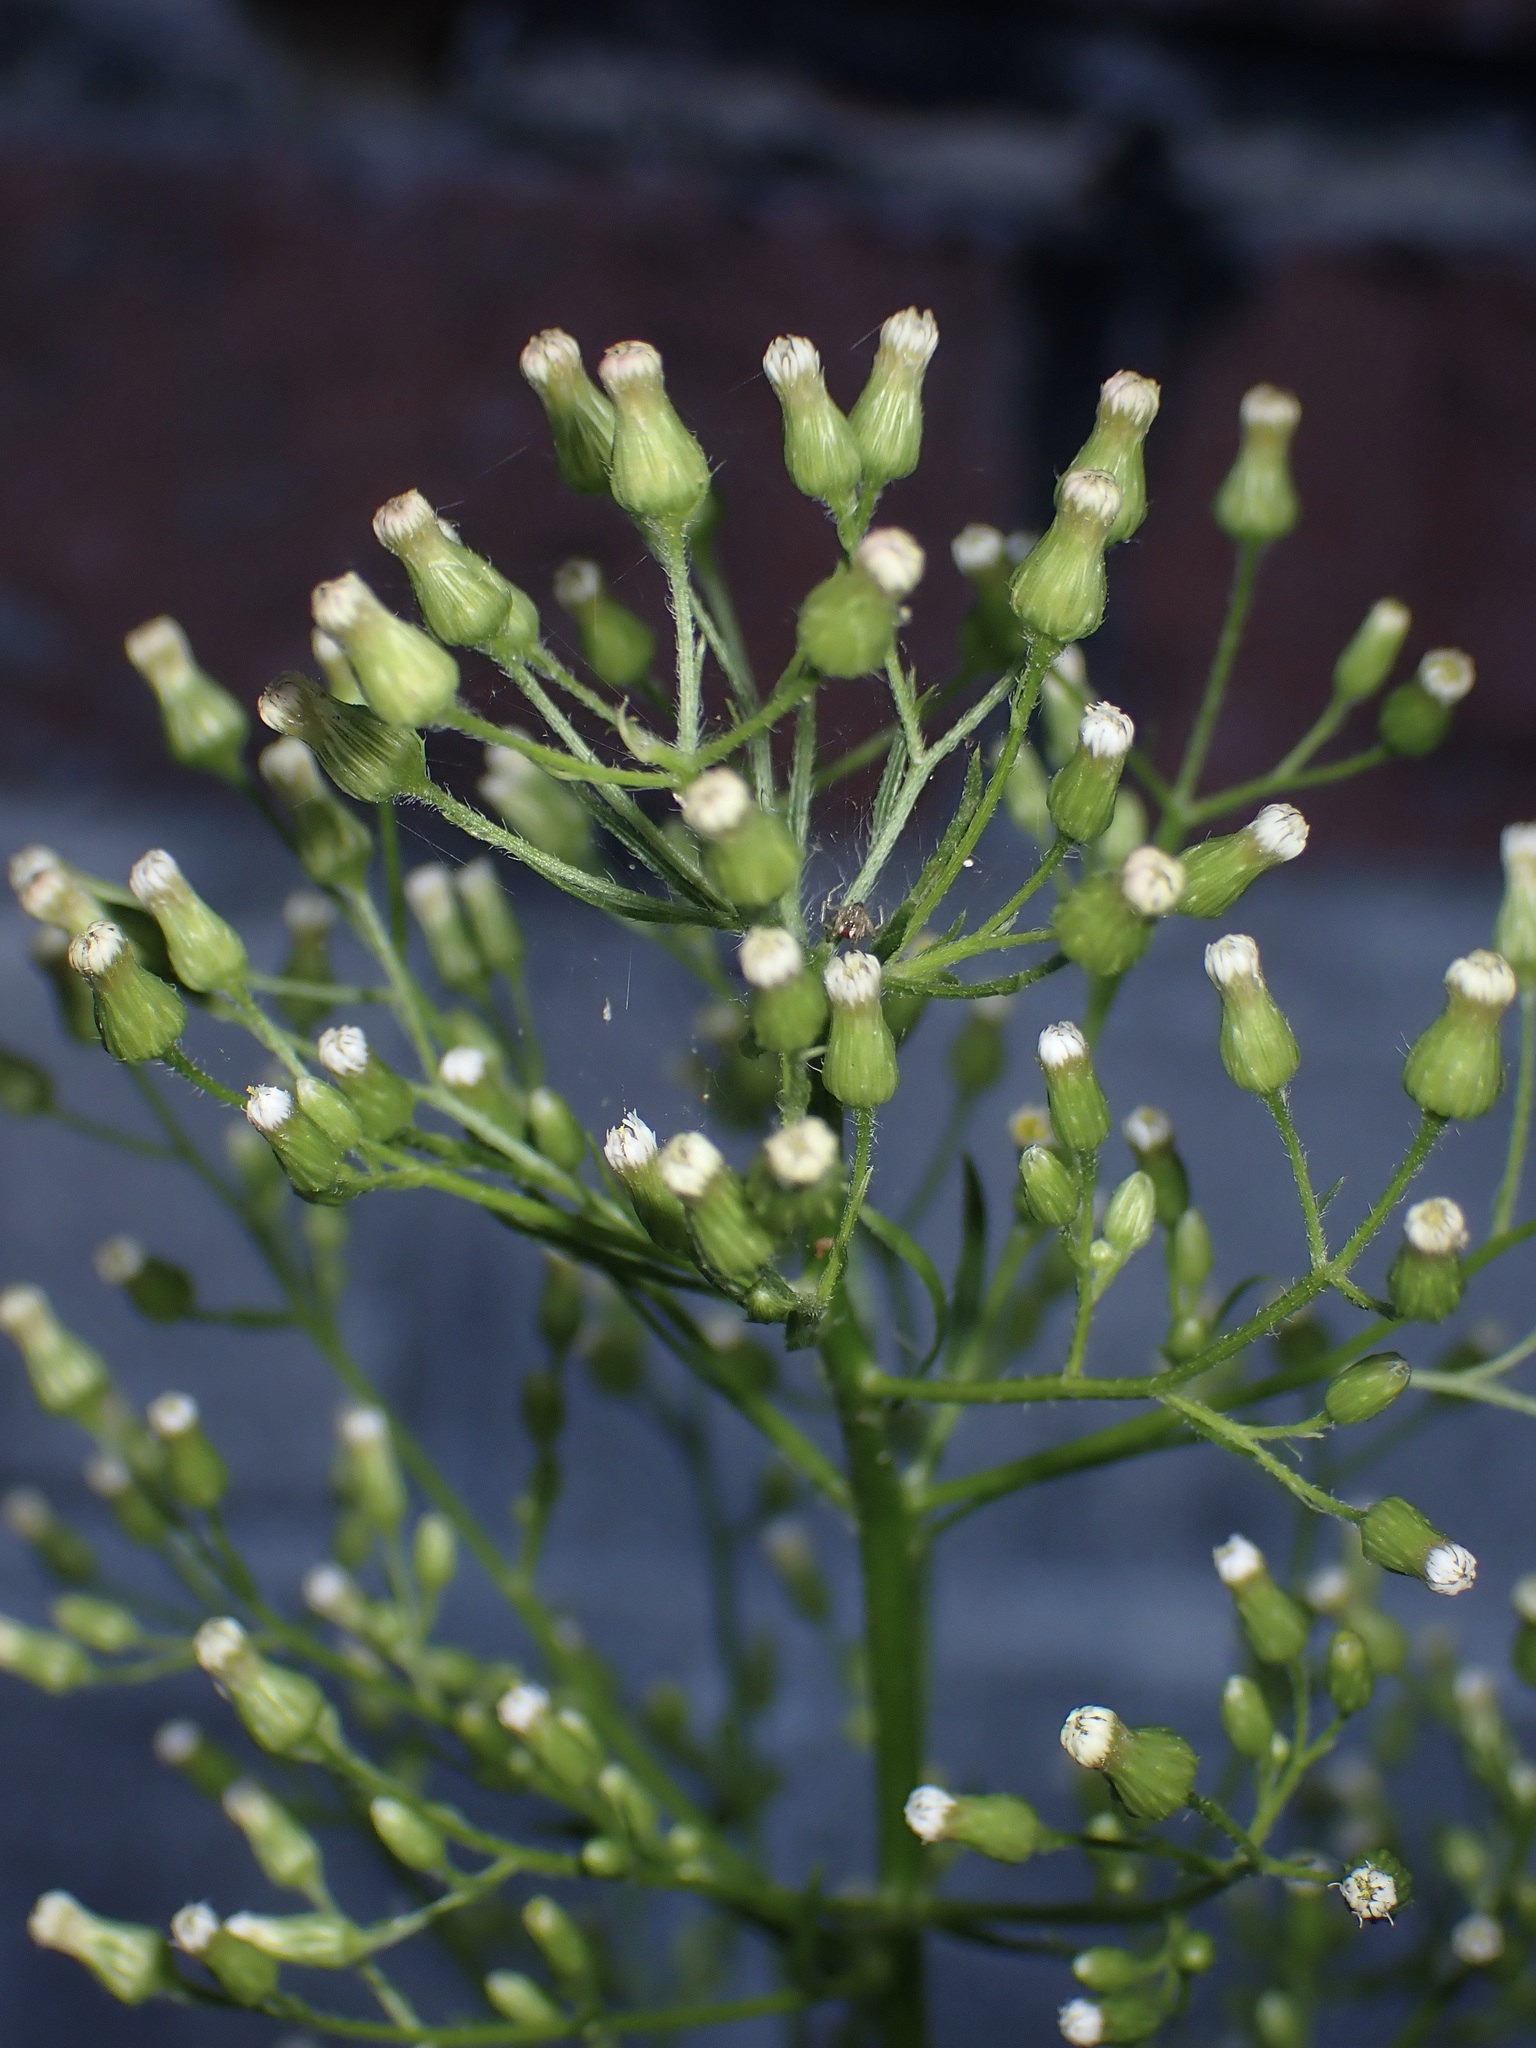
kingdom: Plantae
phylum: Tracheophyta
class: Magnoliopsida
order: Asterales
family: Asteraceae
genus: Erigeron
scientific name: Erigeron canadensis
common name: Canadian fleabane
